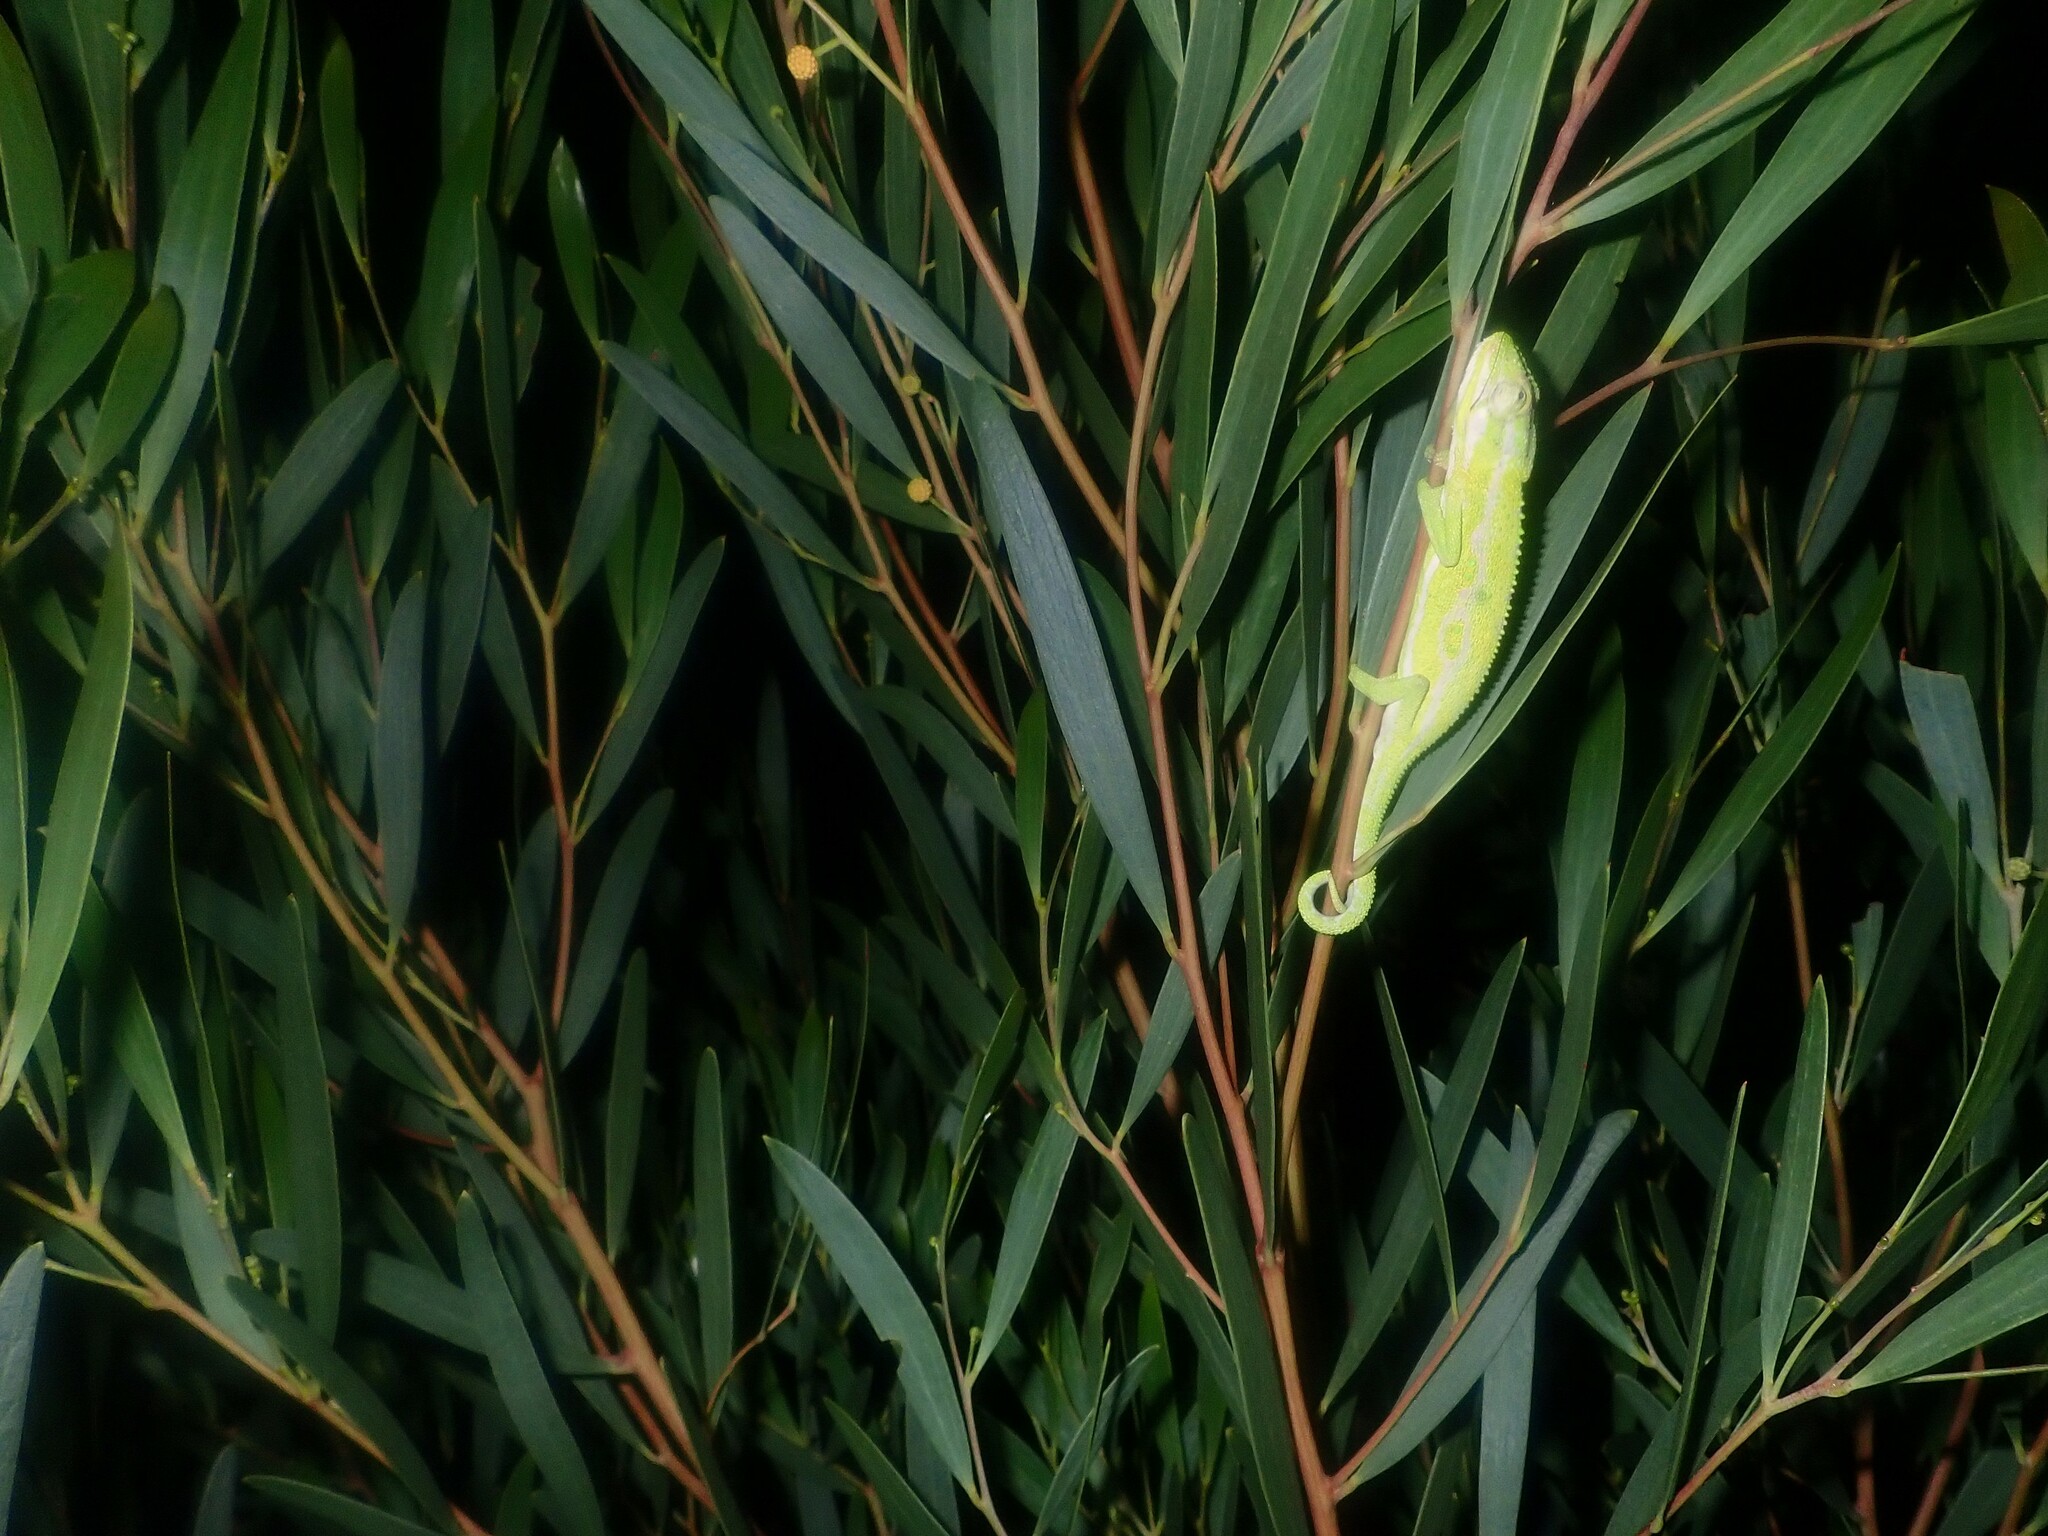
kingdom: Animalia
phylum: Chordata
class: Squamata
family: Chamaeleonidae
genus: Bradypodion
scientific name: Bradypodion pumilum
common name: Cape dwarf chameleon
